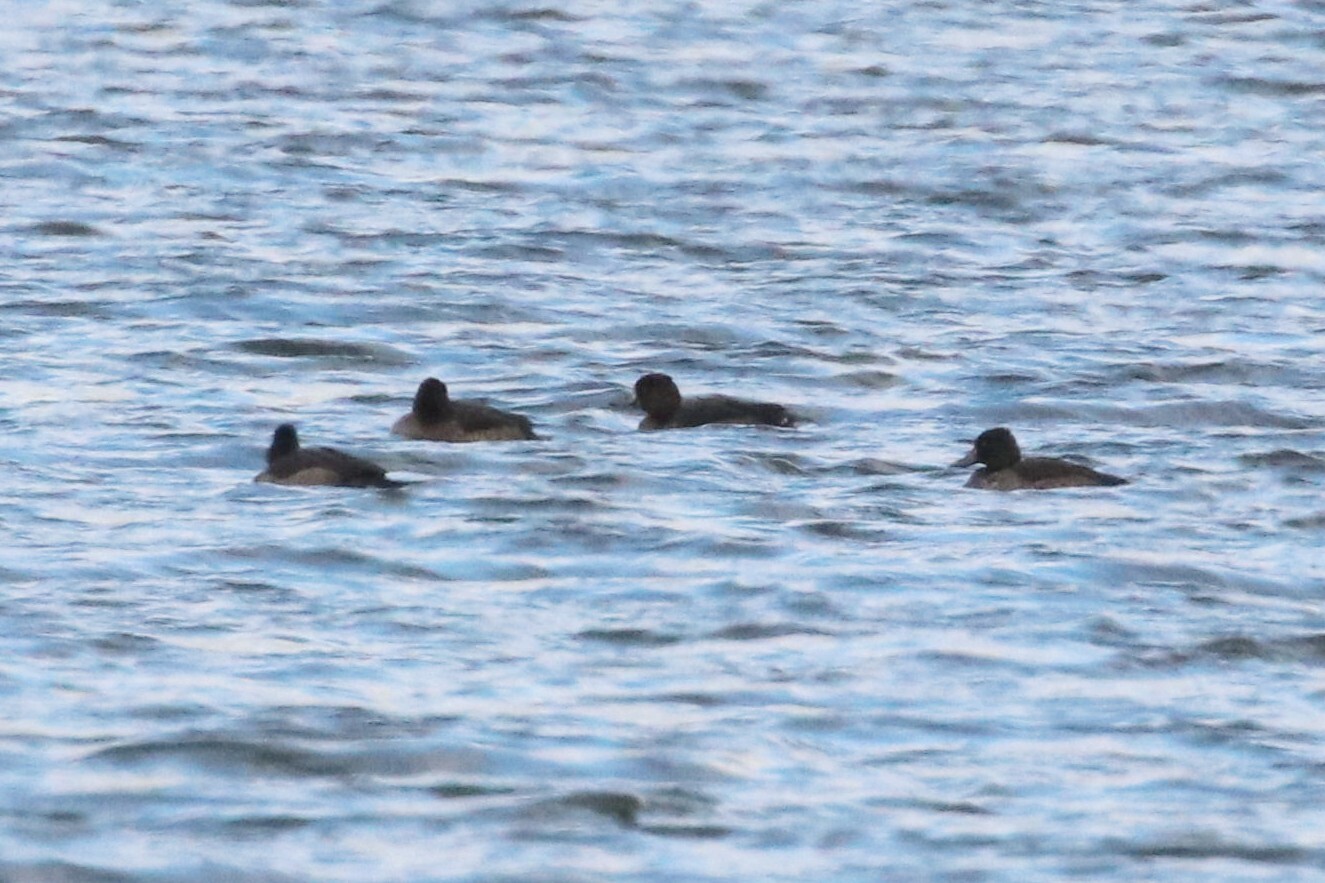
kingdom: Animalia
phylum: Chordata
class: Aves
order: Anseriformes
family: Anatidae
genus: Aythya
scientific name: Aythya fuligula
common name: Tufted duck
